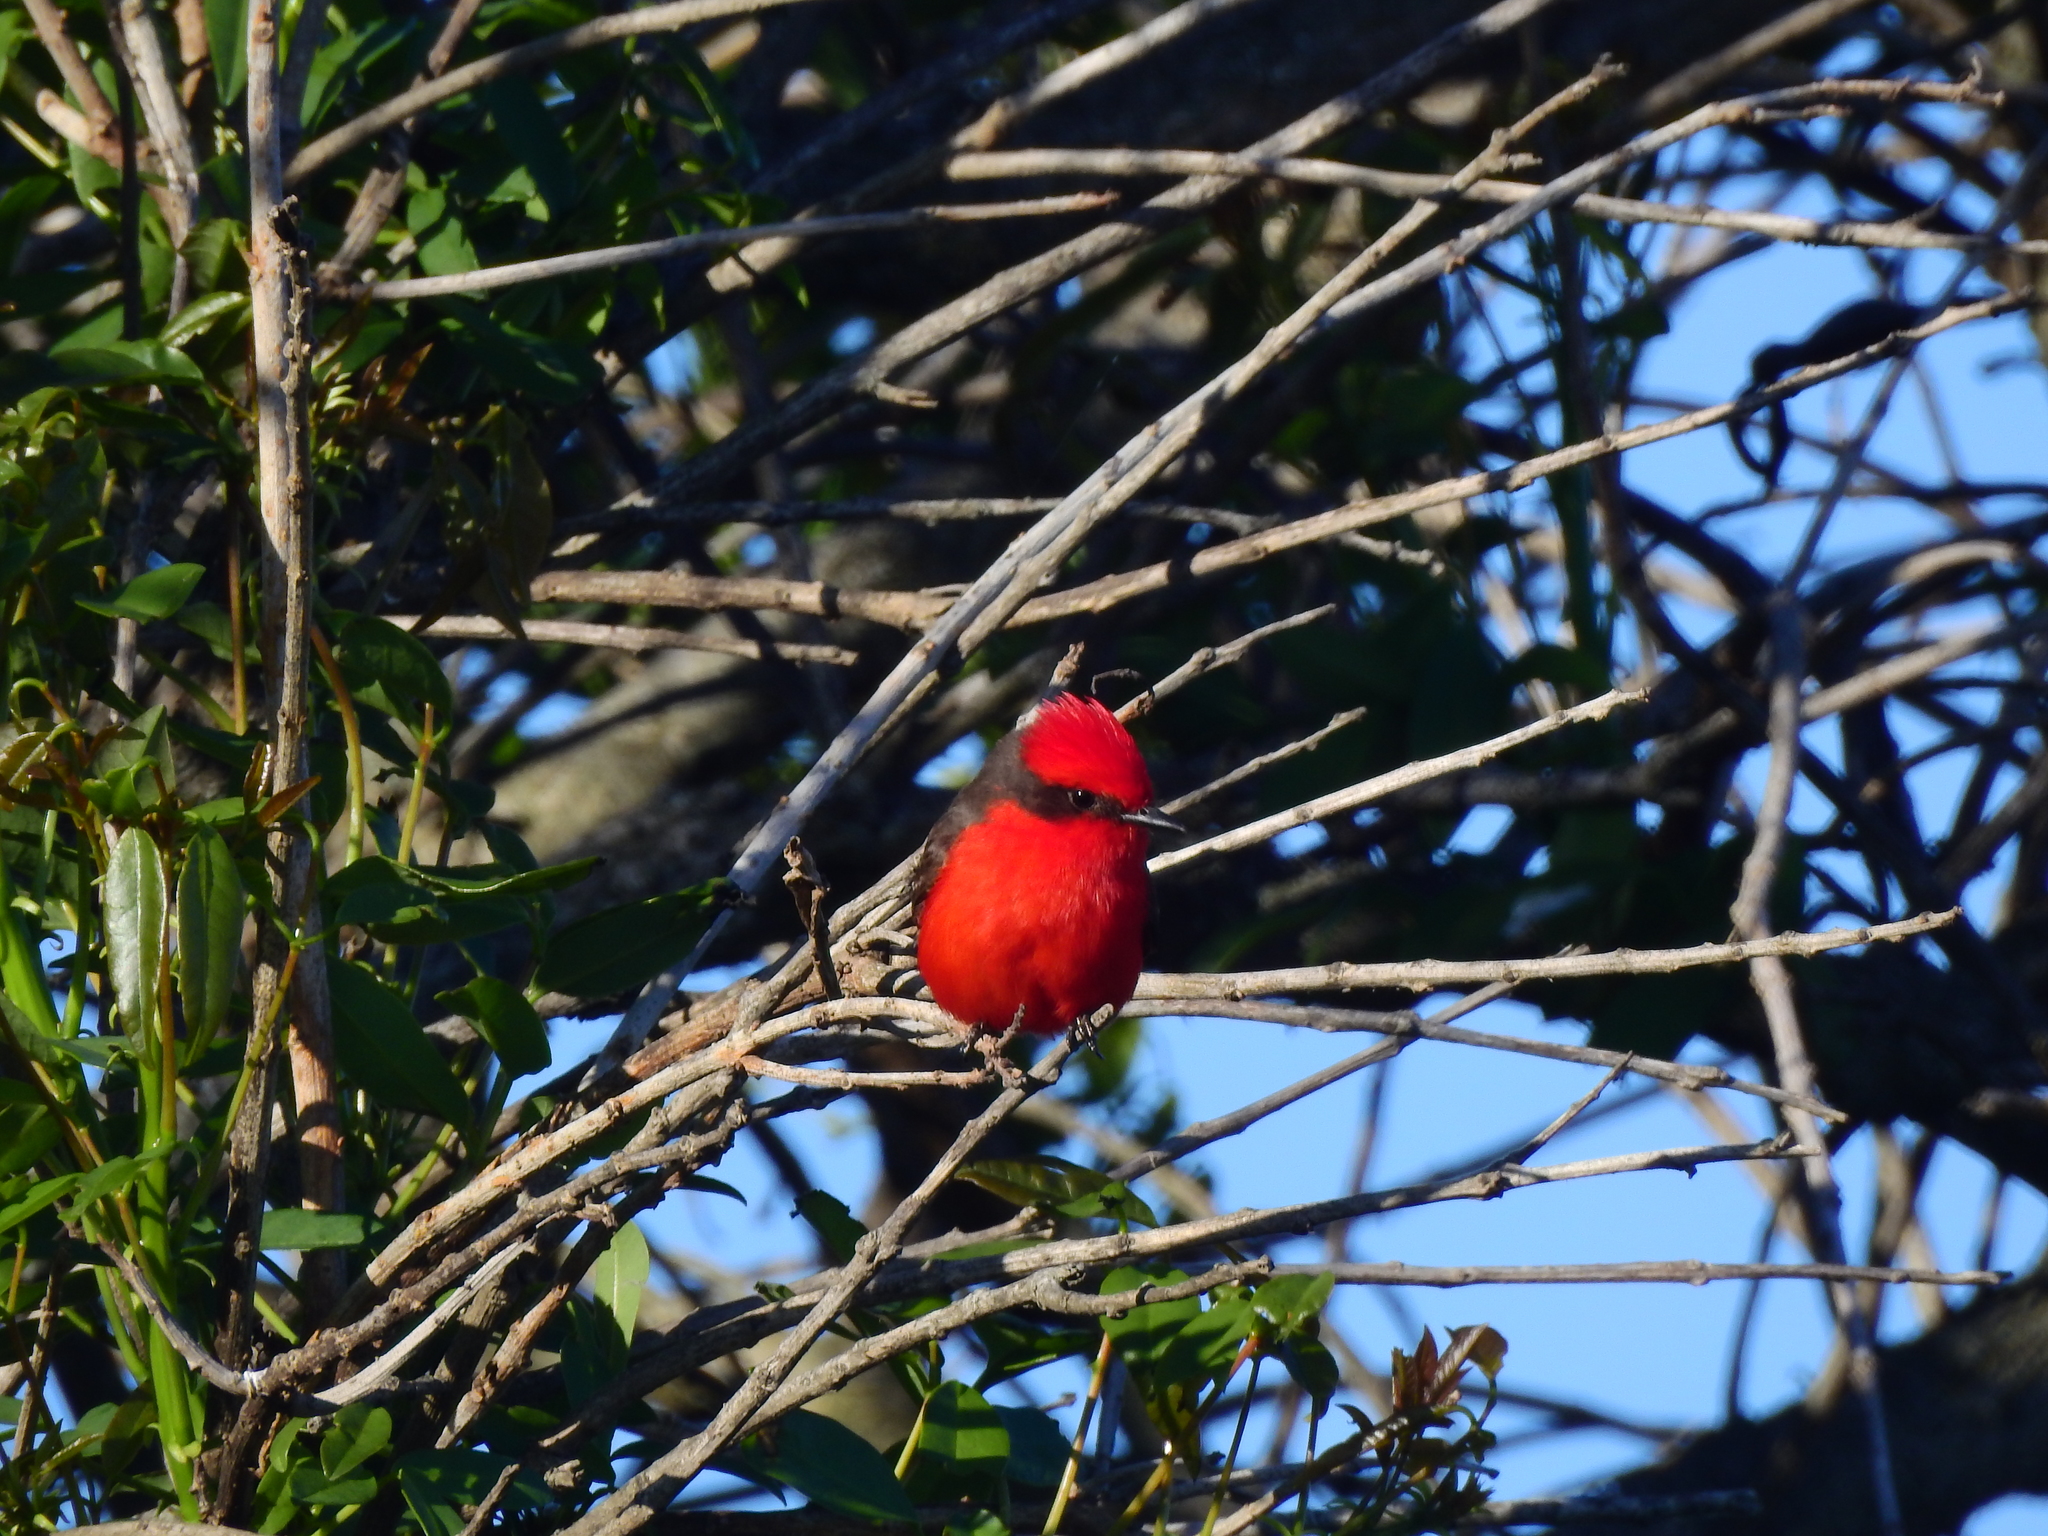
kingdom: Animalia
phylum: Chordata
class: Aves
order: Passeriformes
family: Tyrannidae
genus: Pyrocephalus
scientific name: Pyrocephalus rubinus
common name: Vermilion flycatcher
